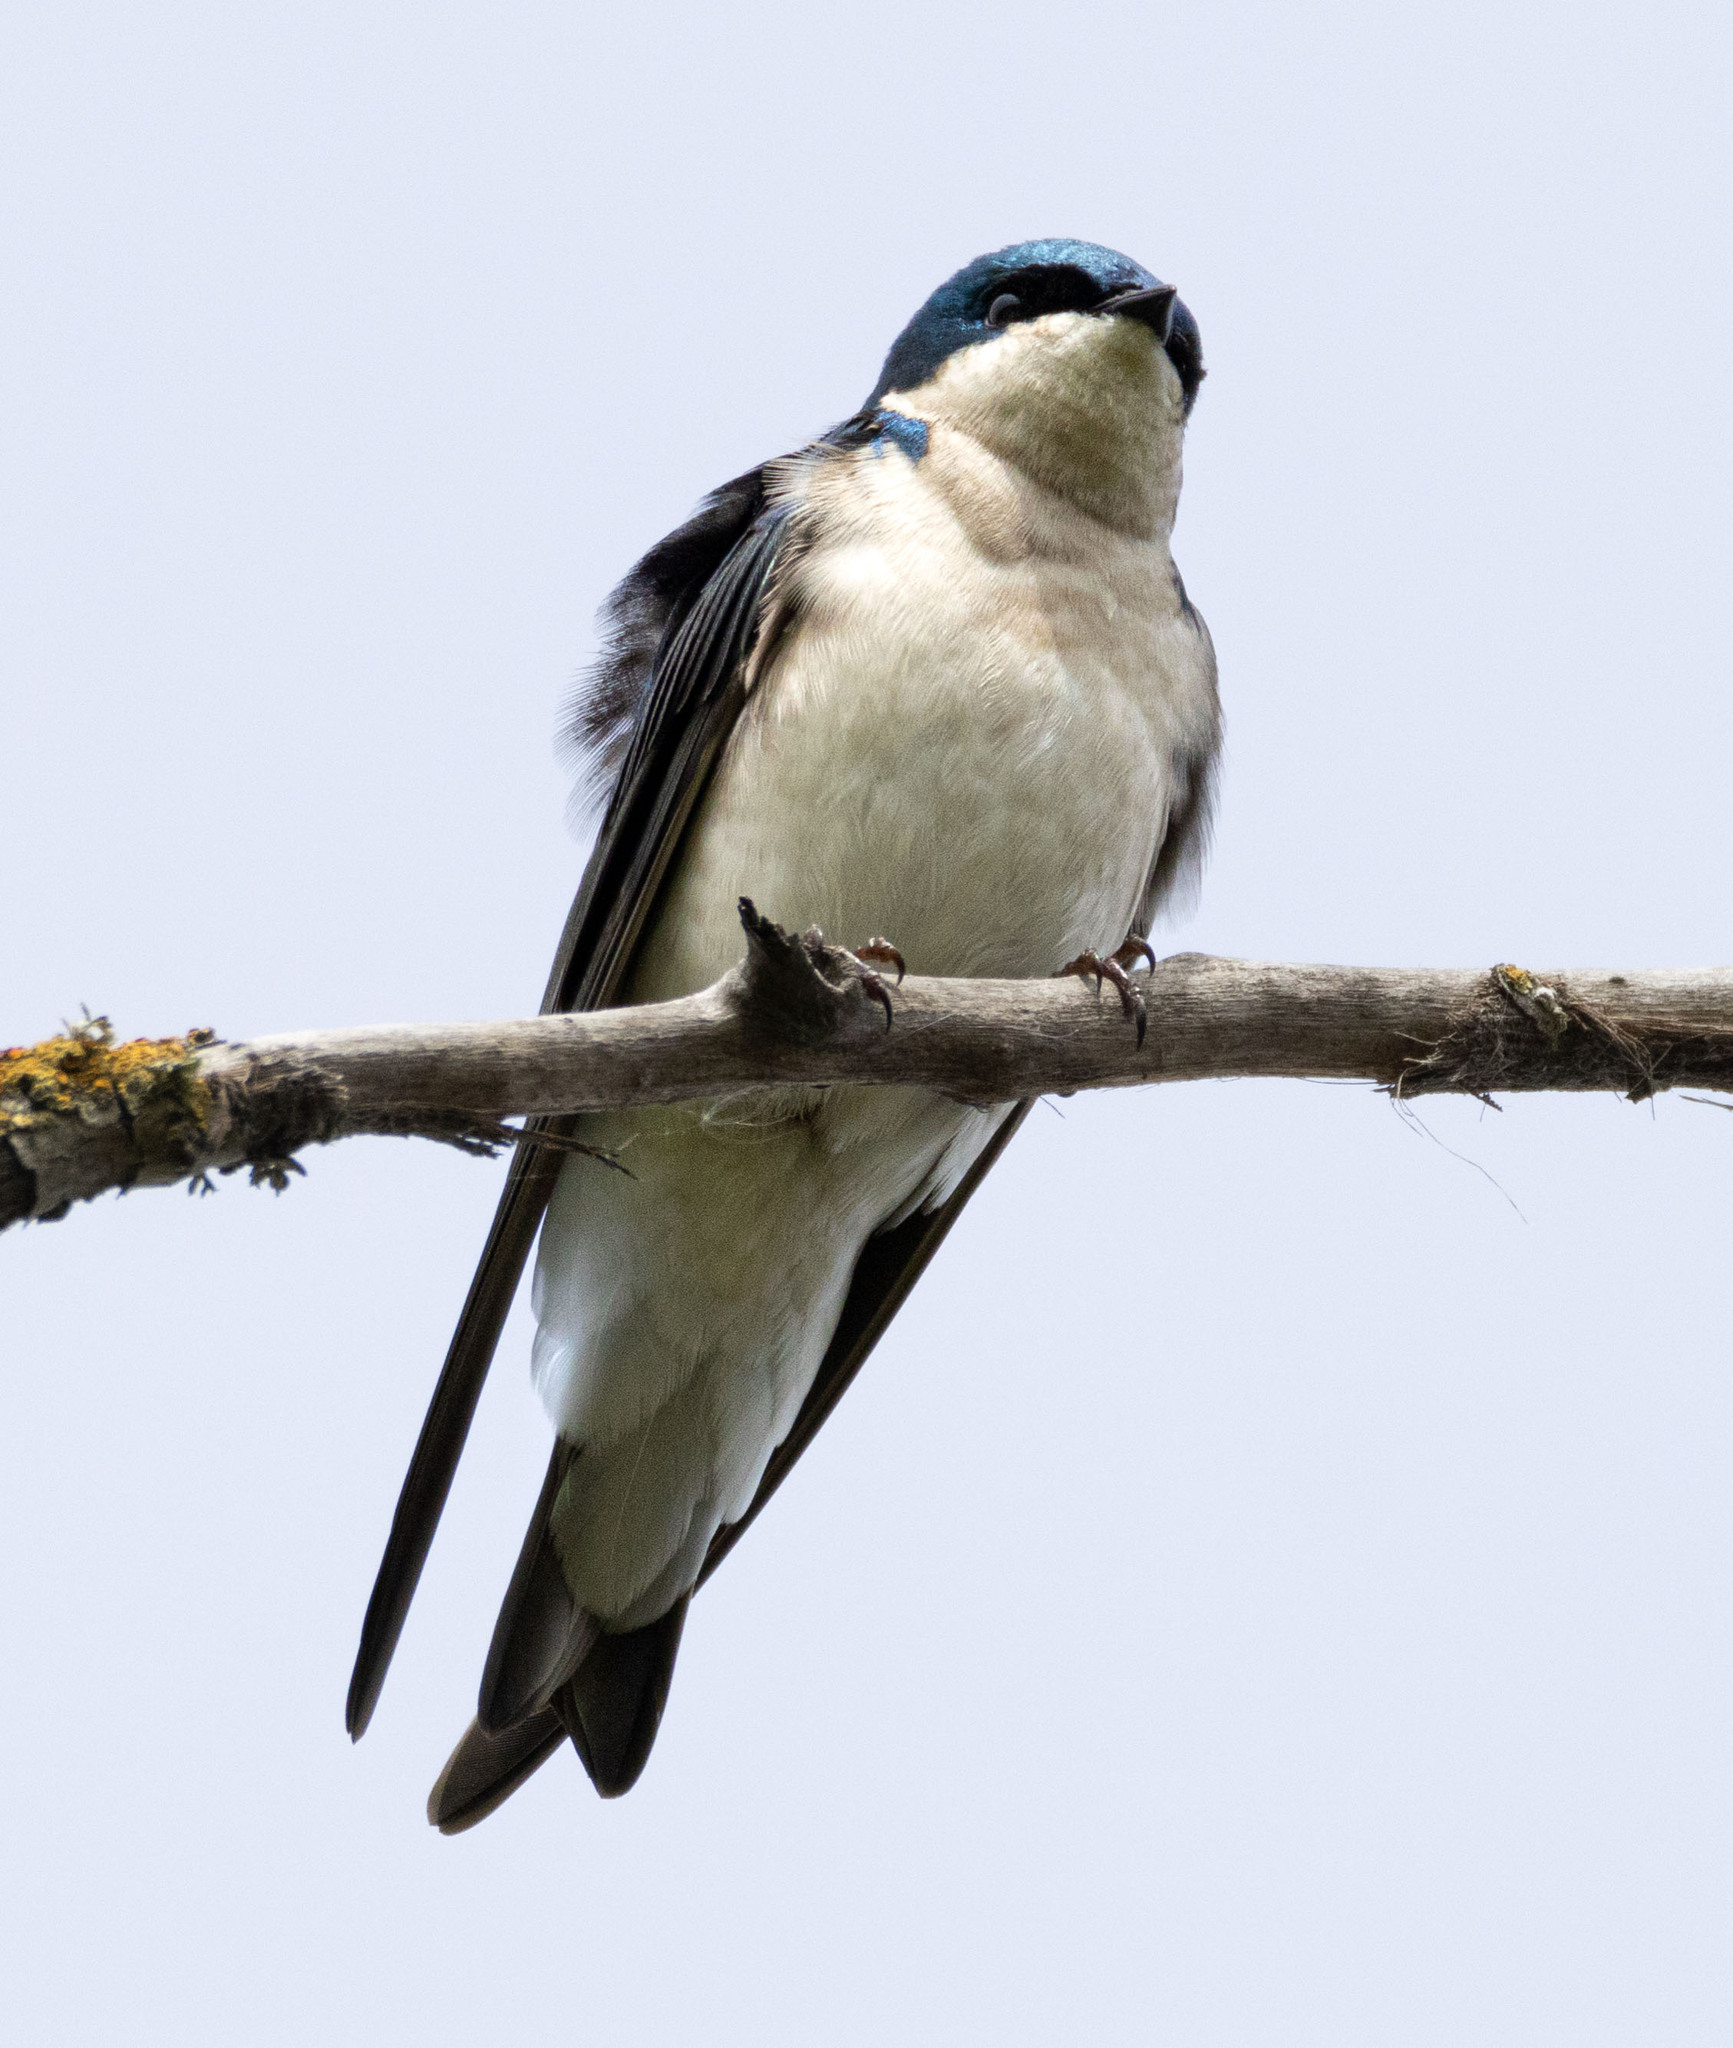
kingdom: Animalia
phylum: Chordata
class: Aves
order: Passeriformes
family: Hirundinidae
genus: Tachycineta
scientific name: Tachycineta bicolor
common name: Tree swallow
